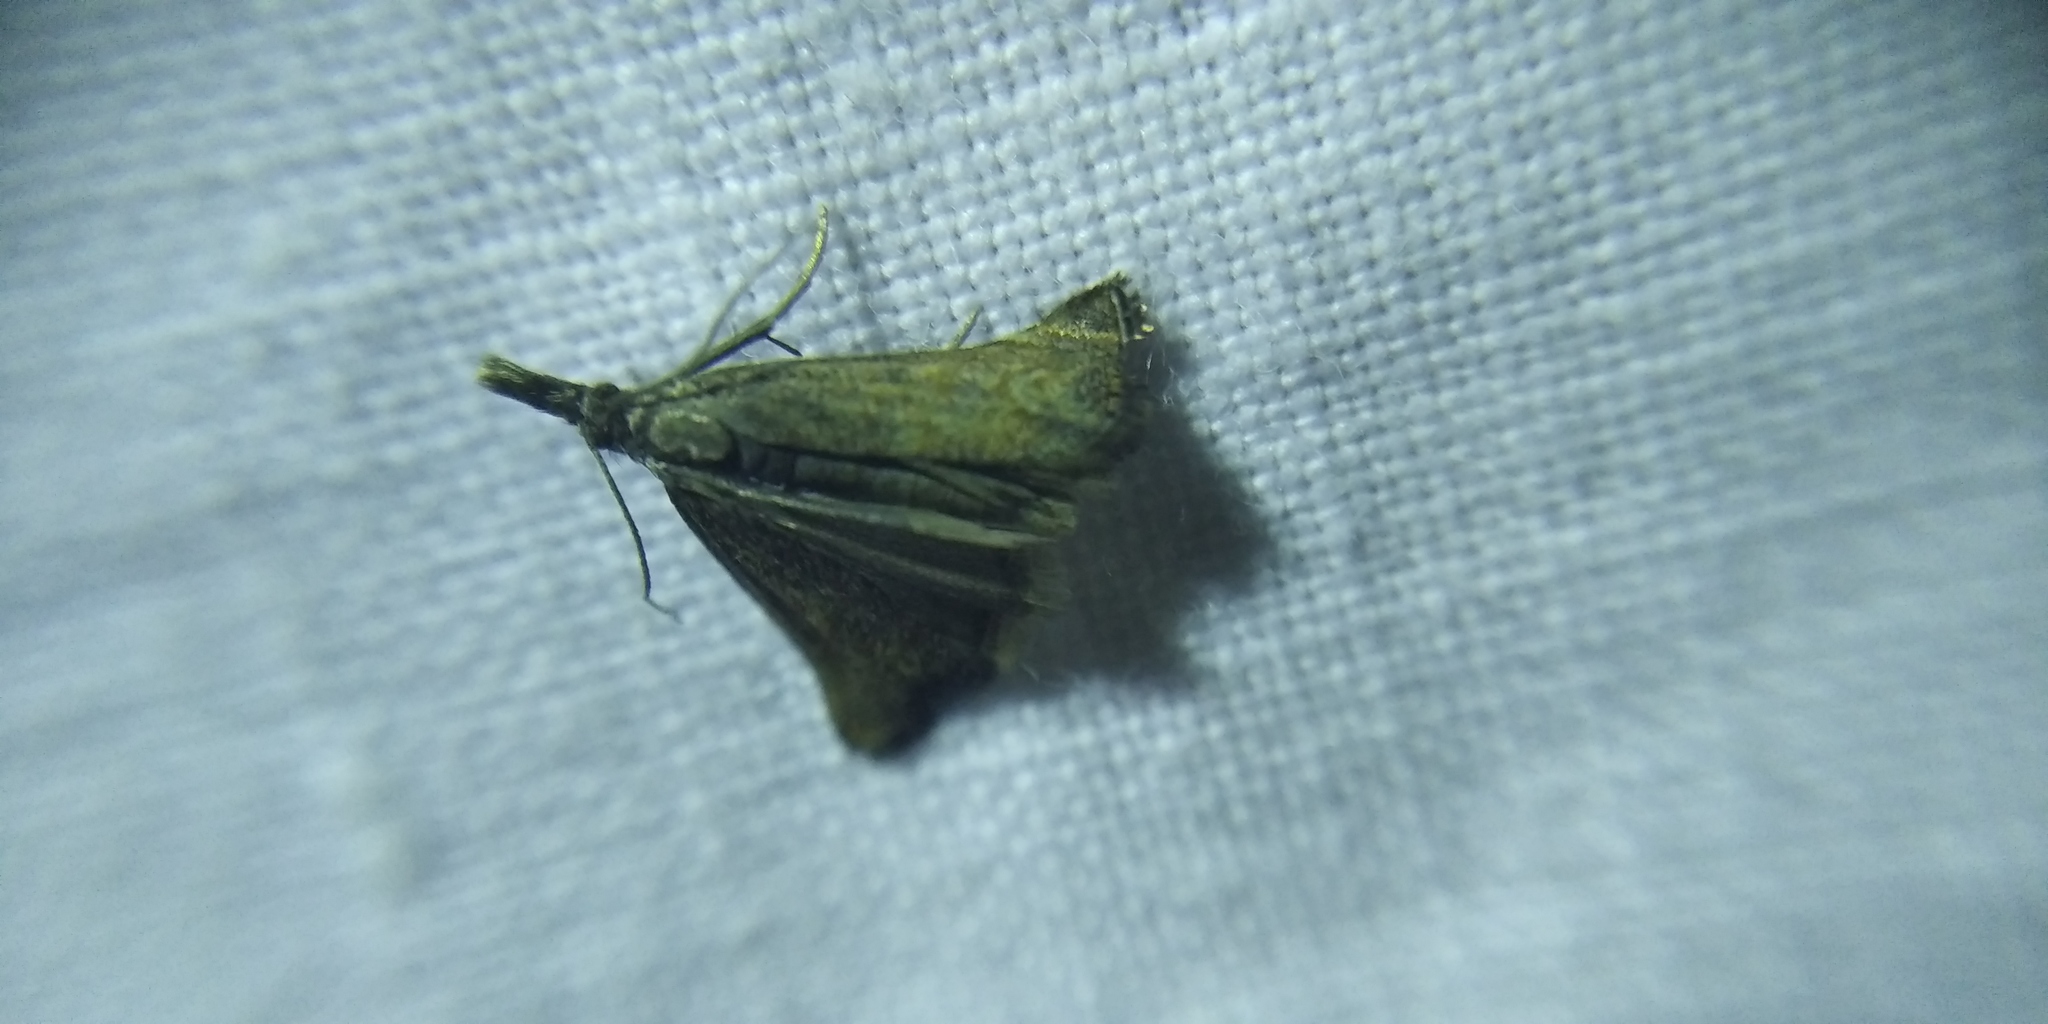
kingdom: Animalia
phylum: Arthropoda
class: Insecta
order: Lepidoptera
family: Crambidae
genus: Platytes
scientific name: Platytes cerusella
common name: Little grass-veneer
